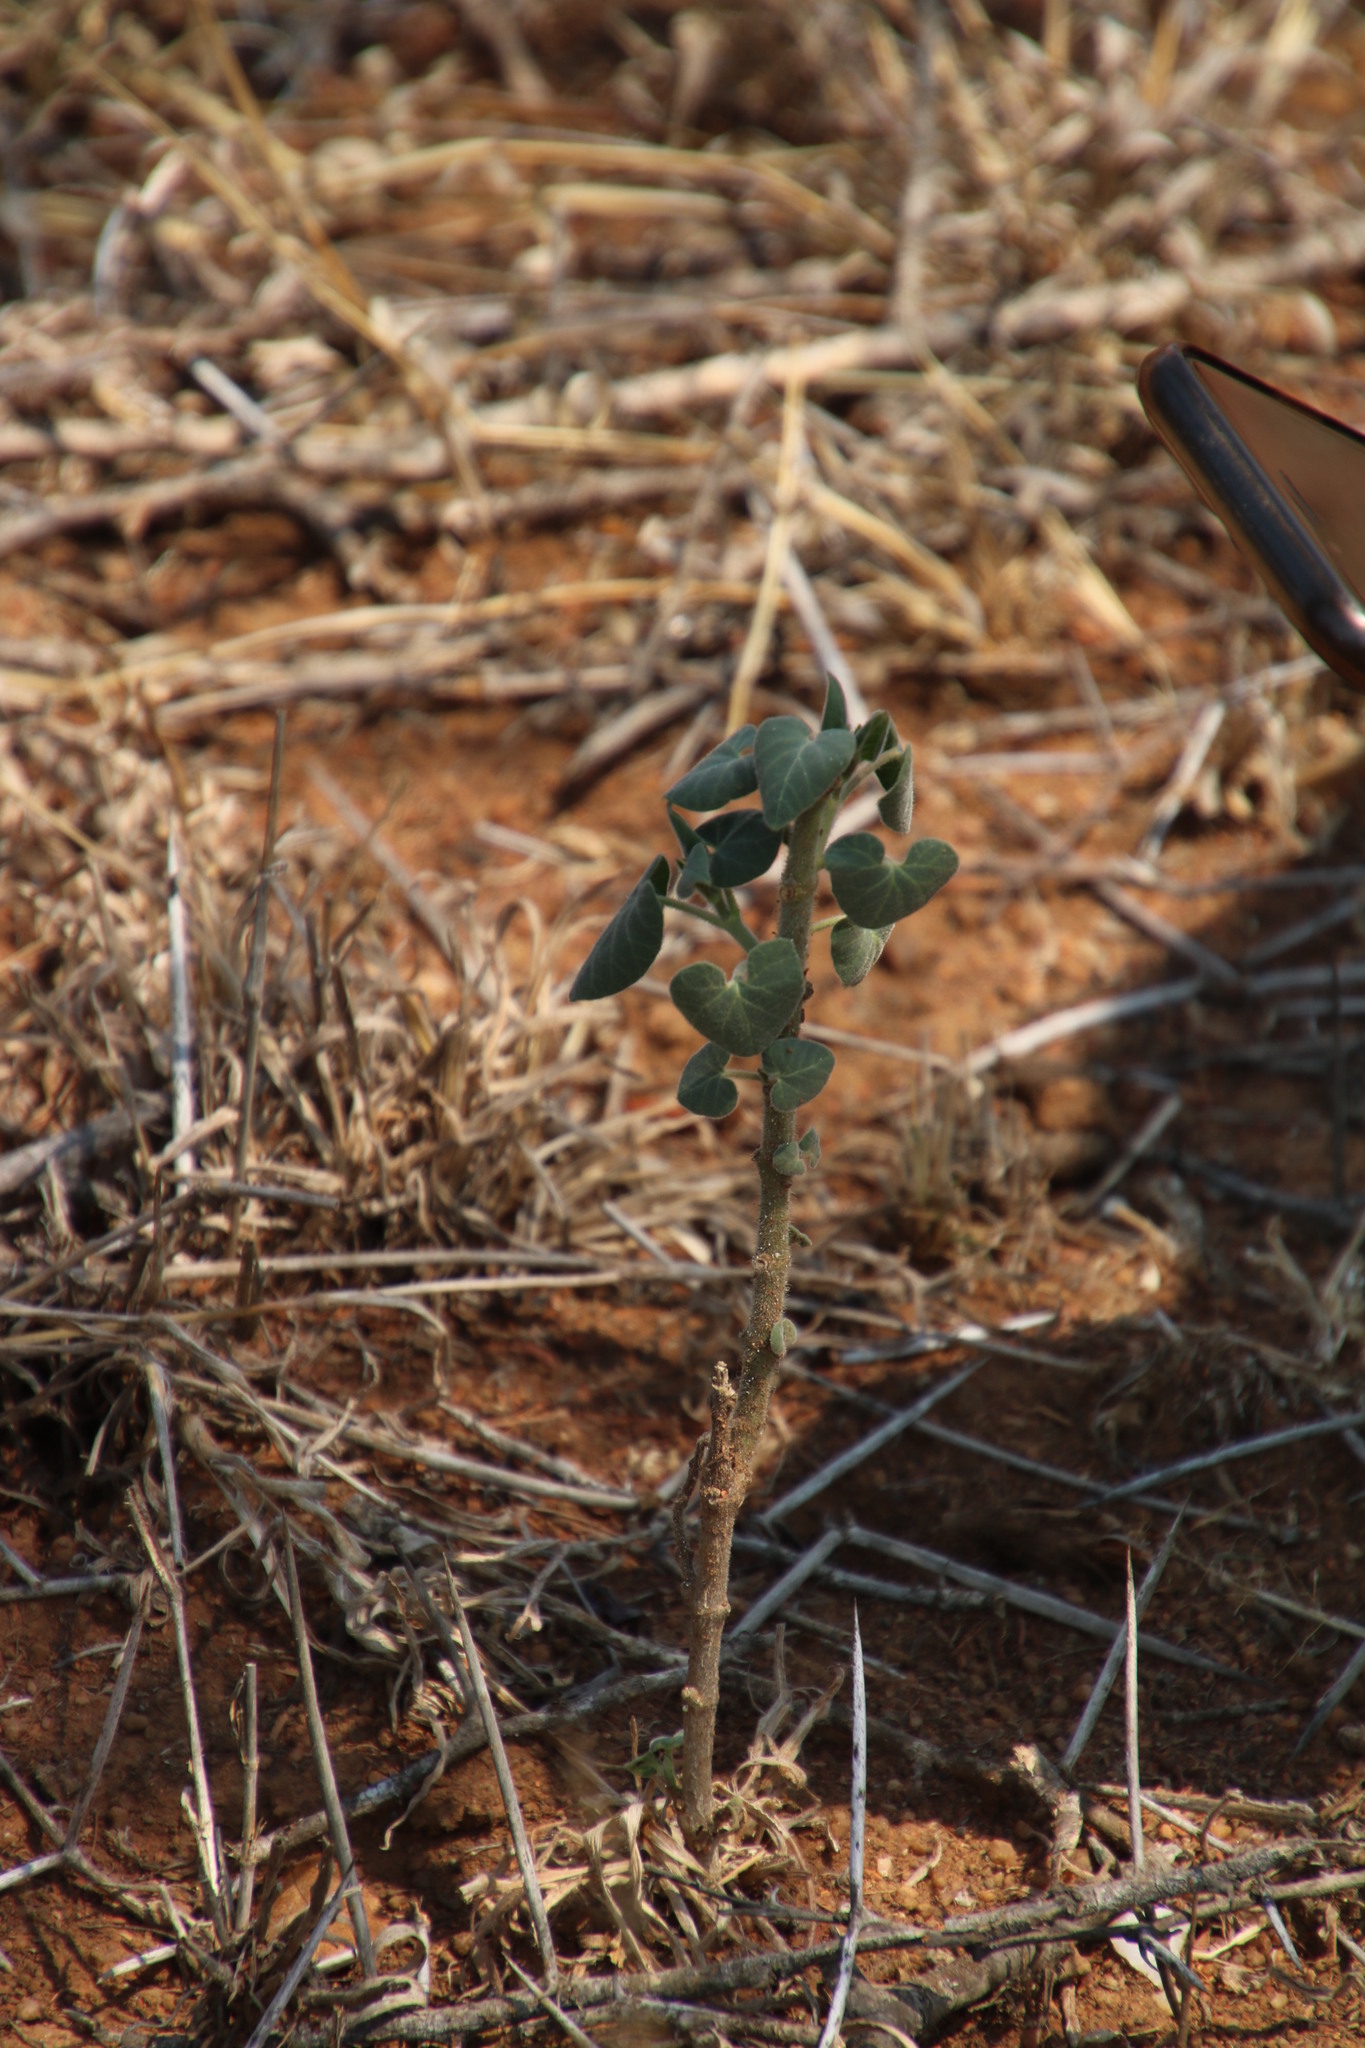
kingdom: Plantae
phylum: Tracheophyta
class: Magnoliopsida
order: Gentianales
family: Apocynaceae
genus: Pergularia
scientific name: Pergularia daemia
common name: Trellis-vine
